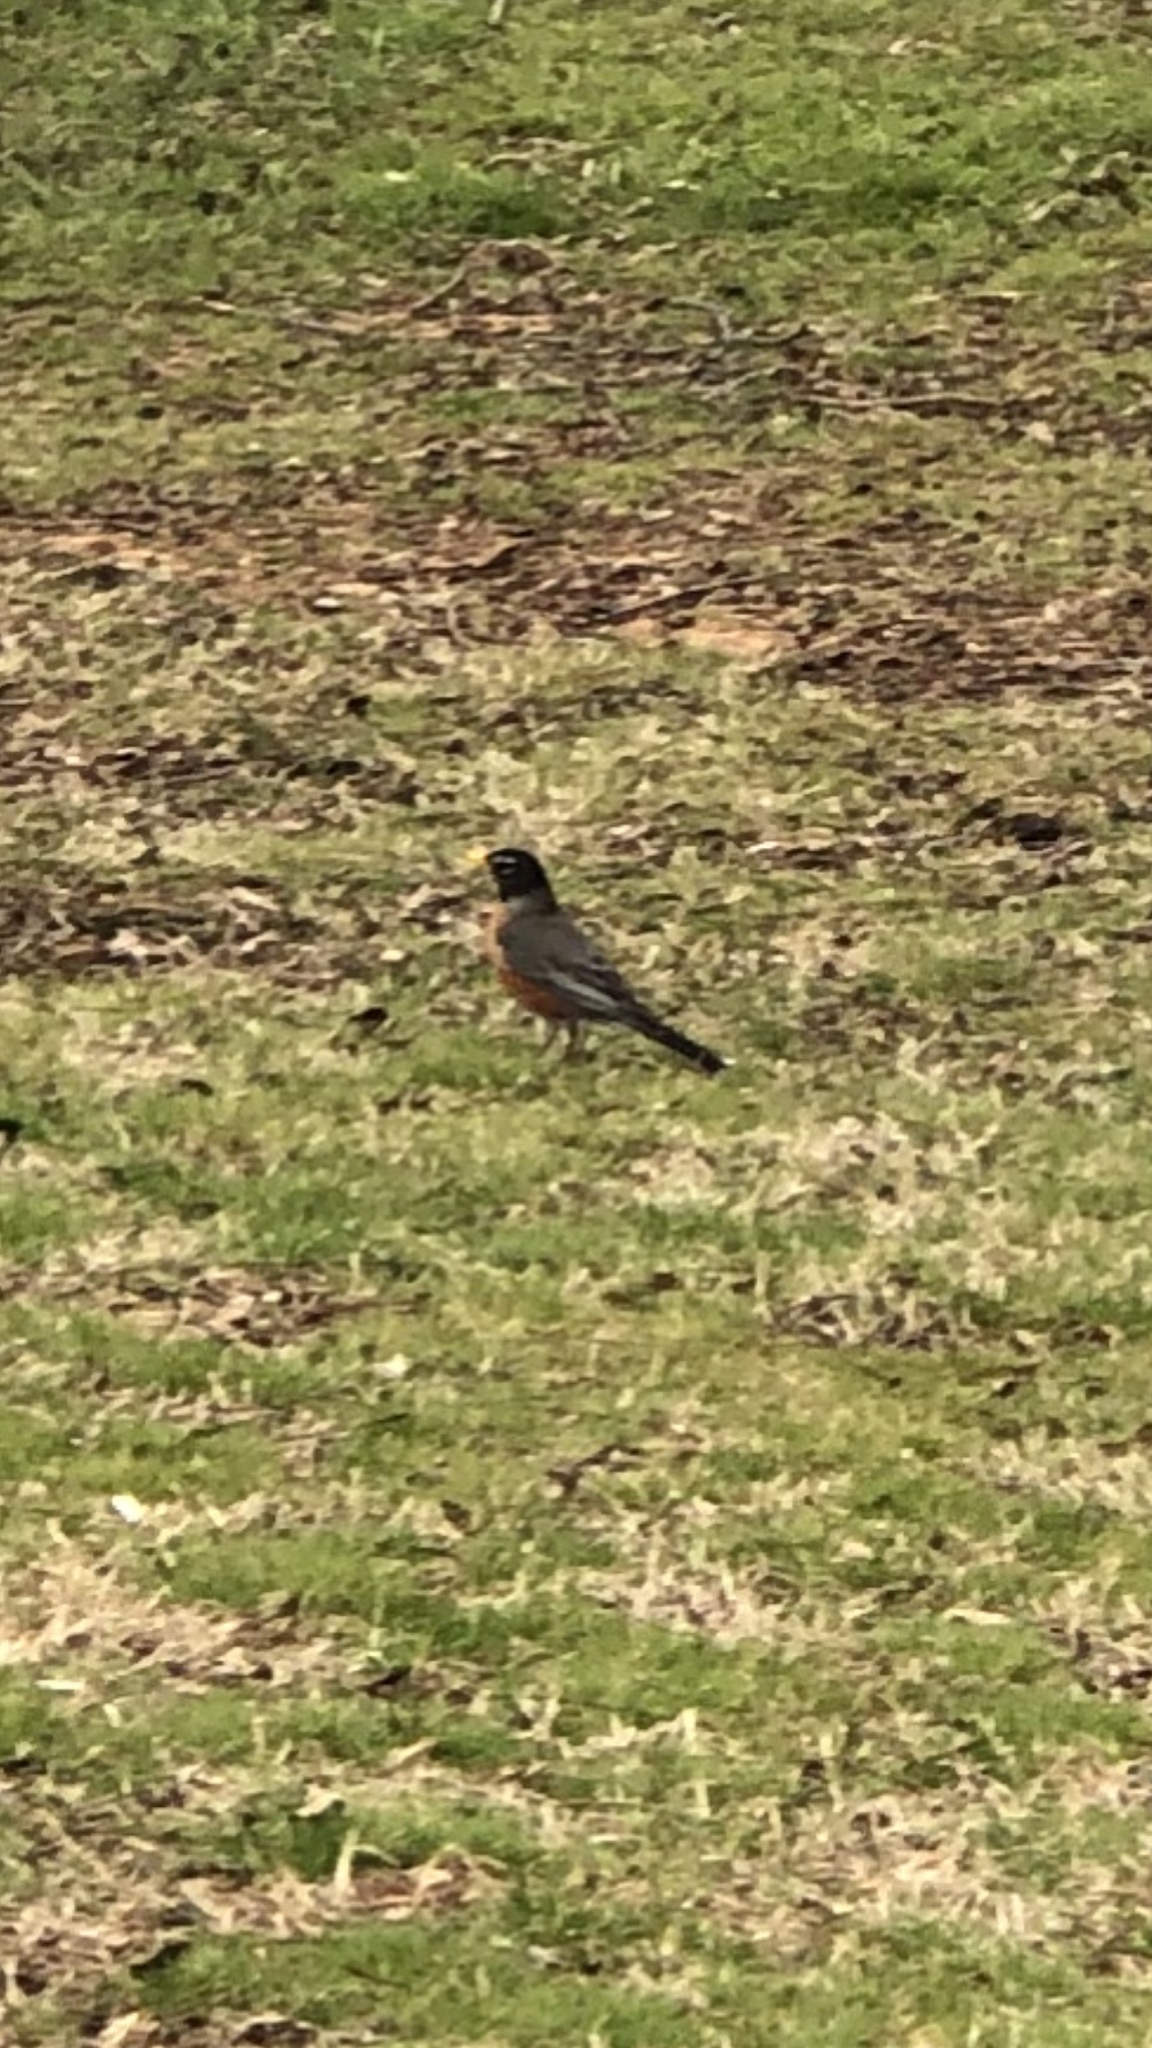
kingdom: Animalia
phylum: Chordata
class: Aves
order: Passeriformes
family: Turdidae
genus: Turdus
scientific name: Turdus migratorius
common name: American robin
